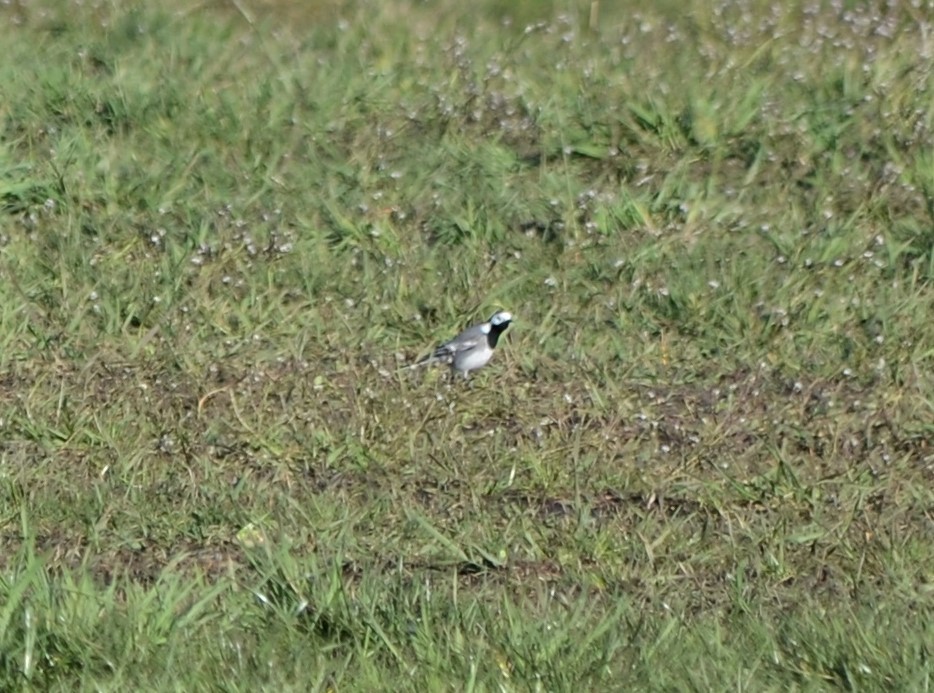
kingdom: Animalia
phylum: Chordata
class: Aves
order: Passeriformes
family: Motacillidae
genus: Motacilla
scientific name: Motacilla alba
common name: White wagtail
